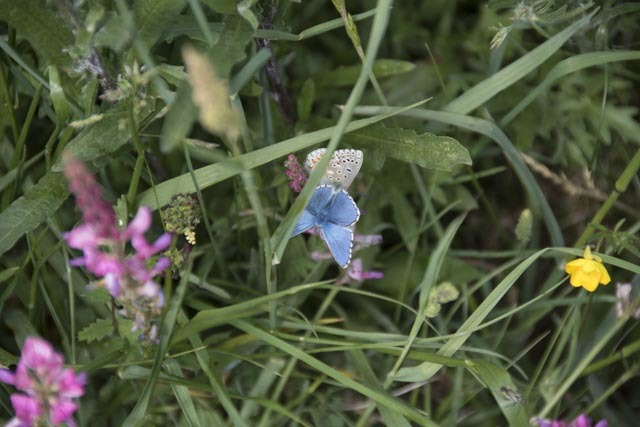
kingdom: Animalia
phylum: Arthropoda
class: Insecta
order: Lepidoptera
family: Lycaenidae
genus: Lysandra
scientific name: Lysandra bellargus
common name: Adonis blue
